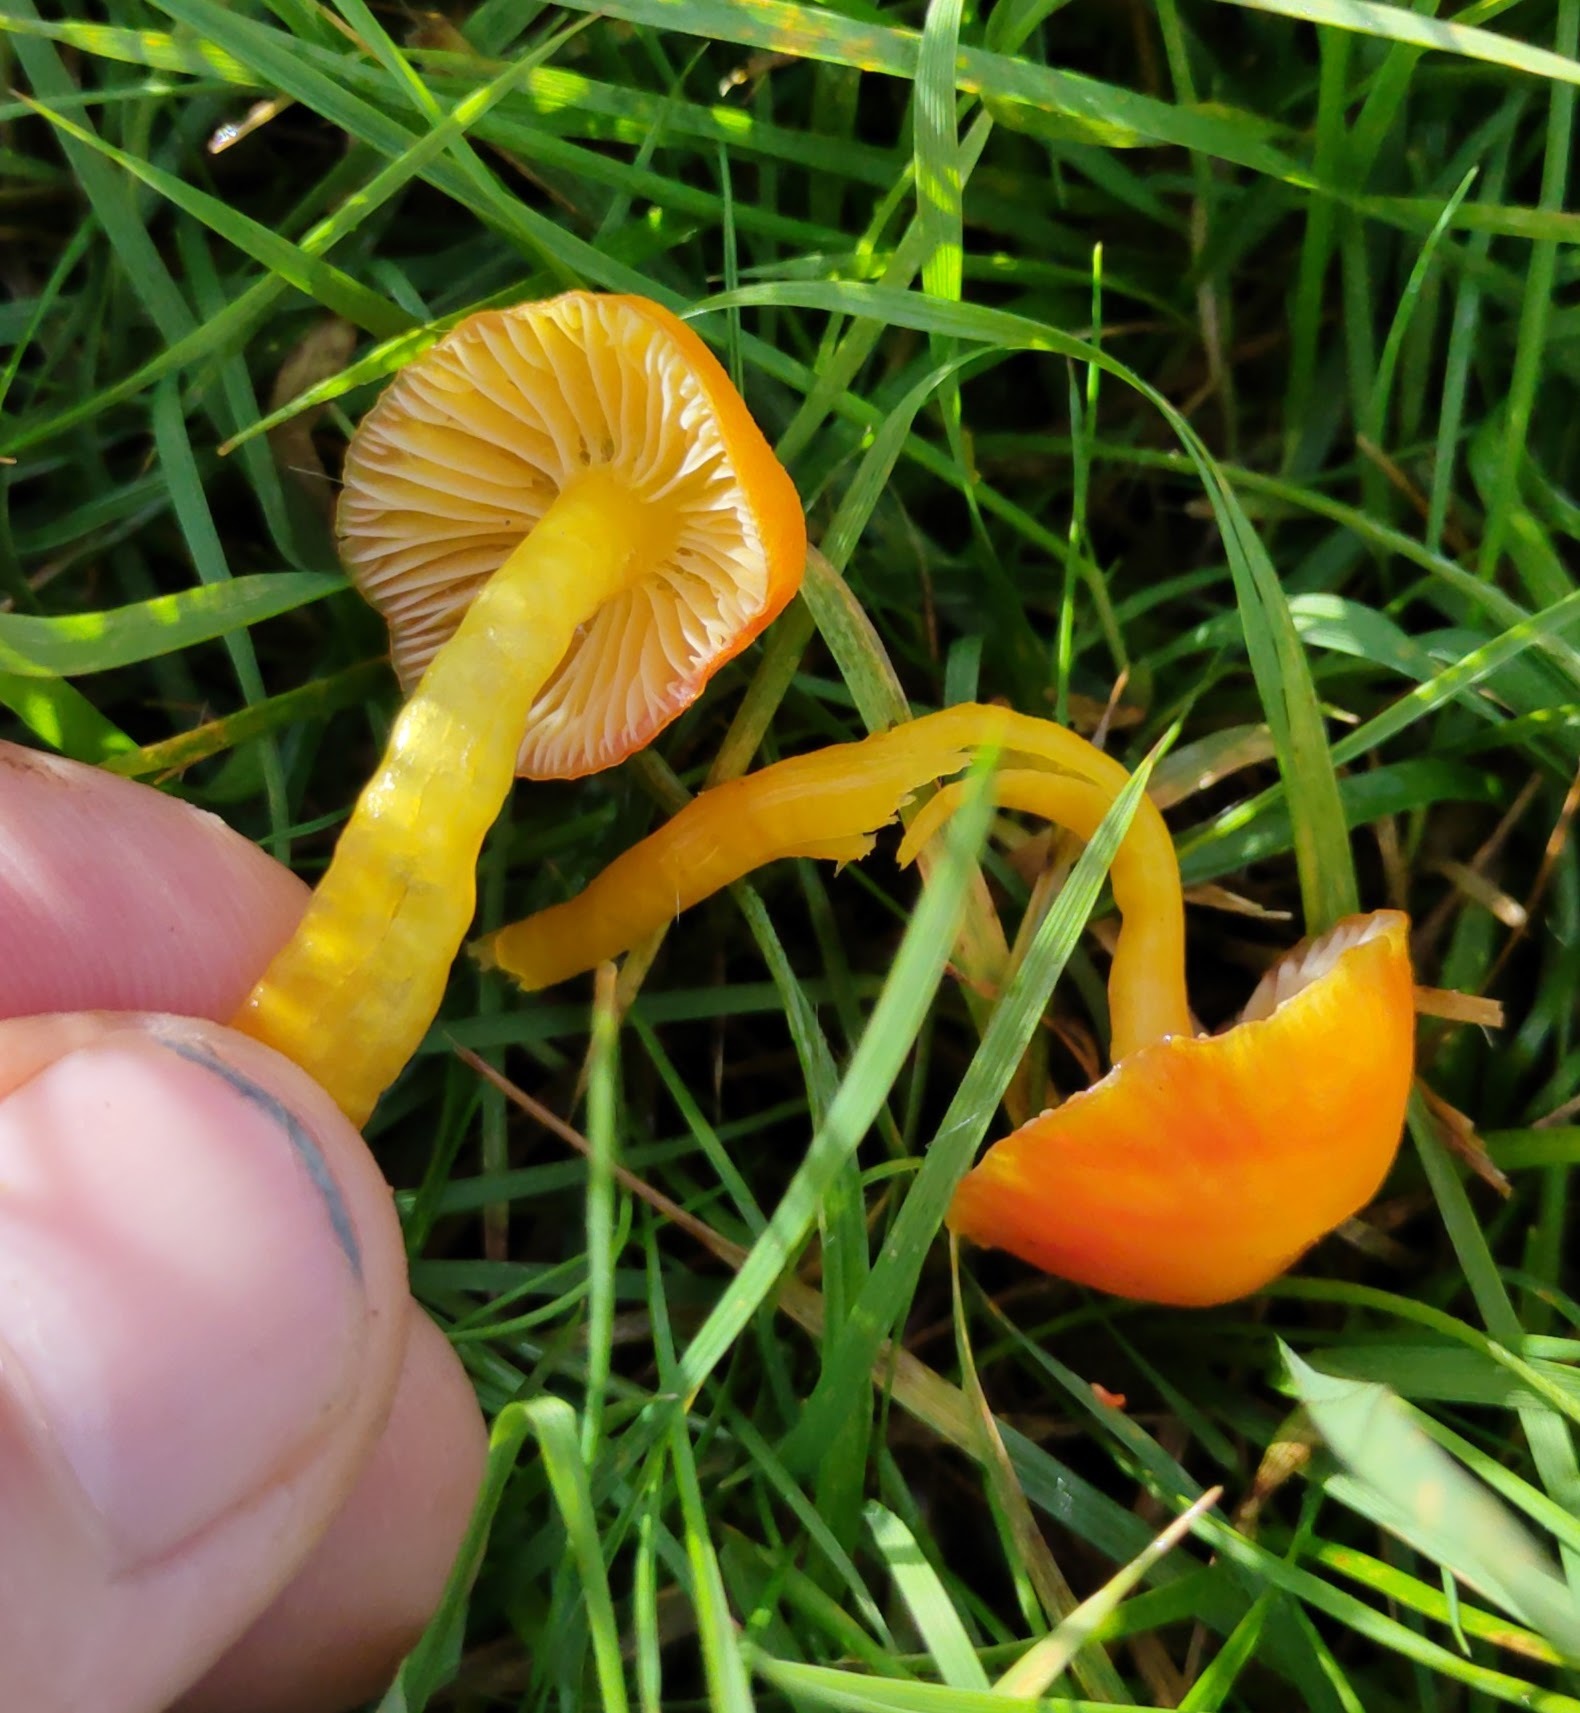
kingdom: Fungi
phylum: Basidiomycota
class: Agaricomycetes
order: Agaricales
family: Hygrophoraceae
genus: Hygrocybe
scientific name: Hygrocybe insipida
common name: Spangle waxcap
